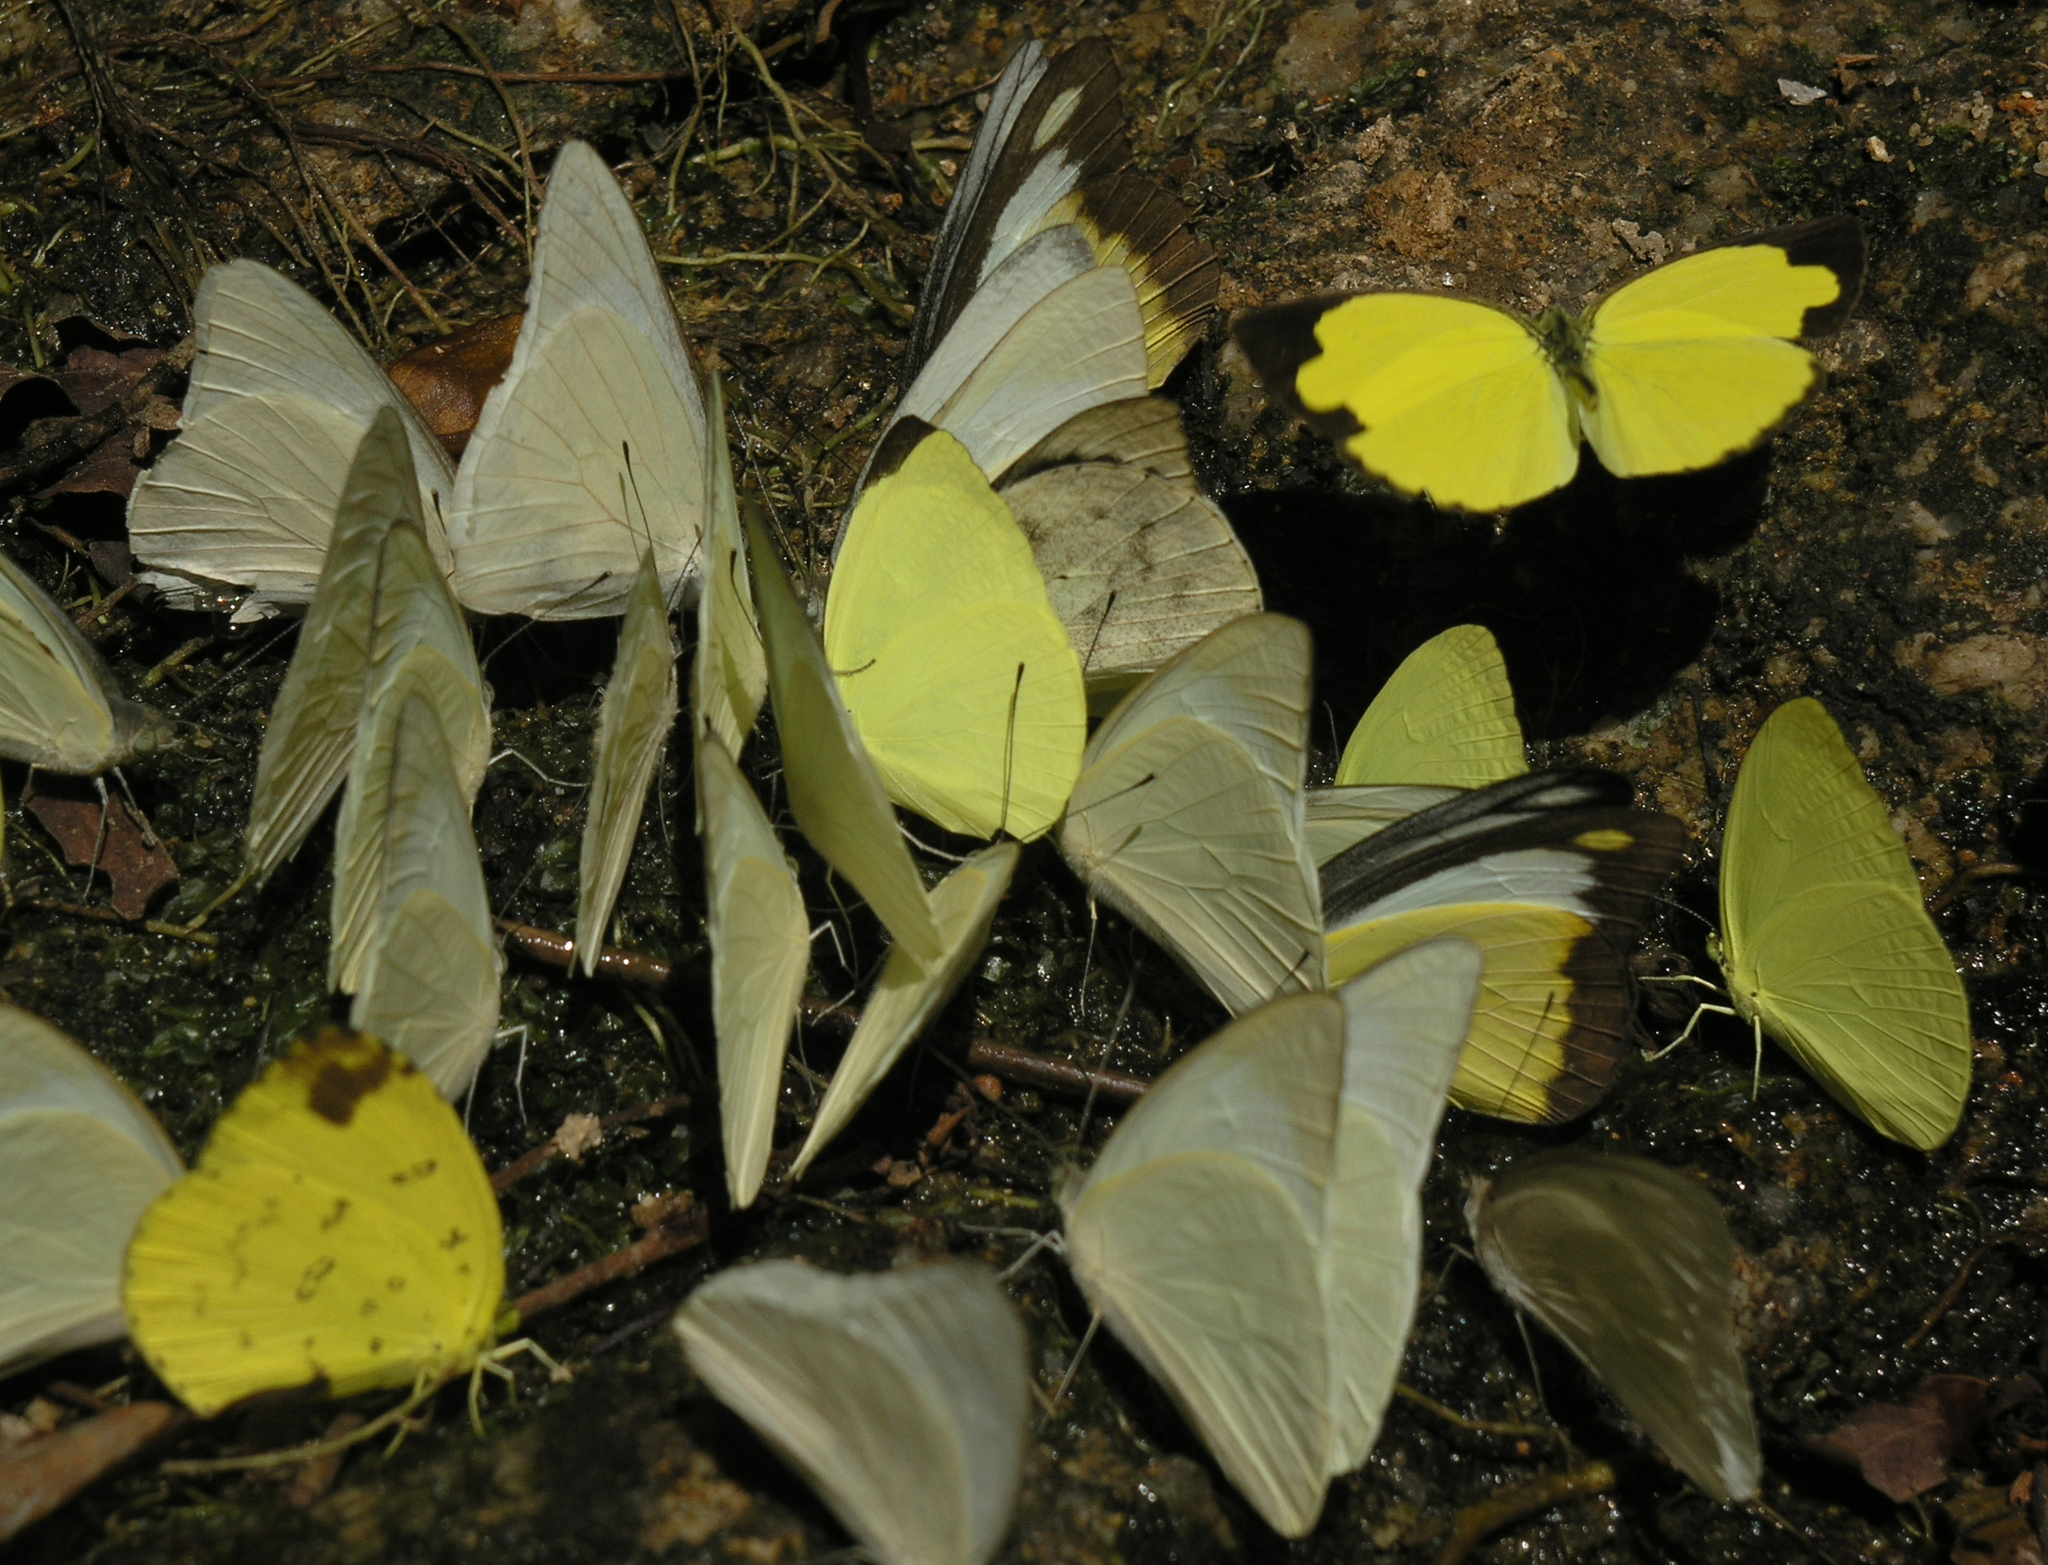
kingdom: Animalia
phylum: Arthropoda
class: Insecta
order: Lepidoptera
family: Pieridae
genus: Appias
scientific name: Appias lyncida
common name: Chocolate albatross
